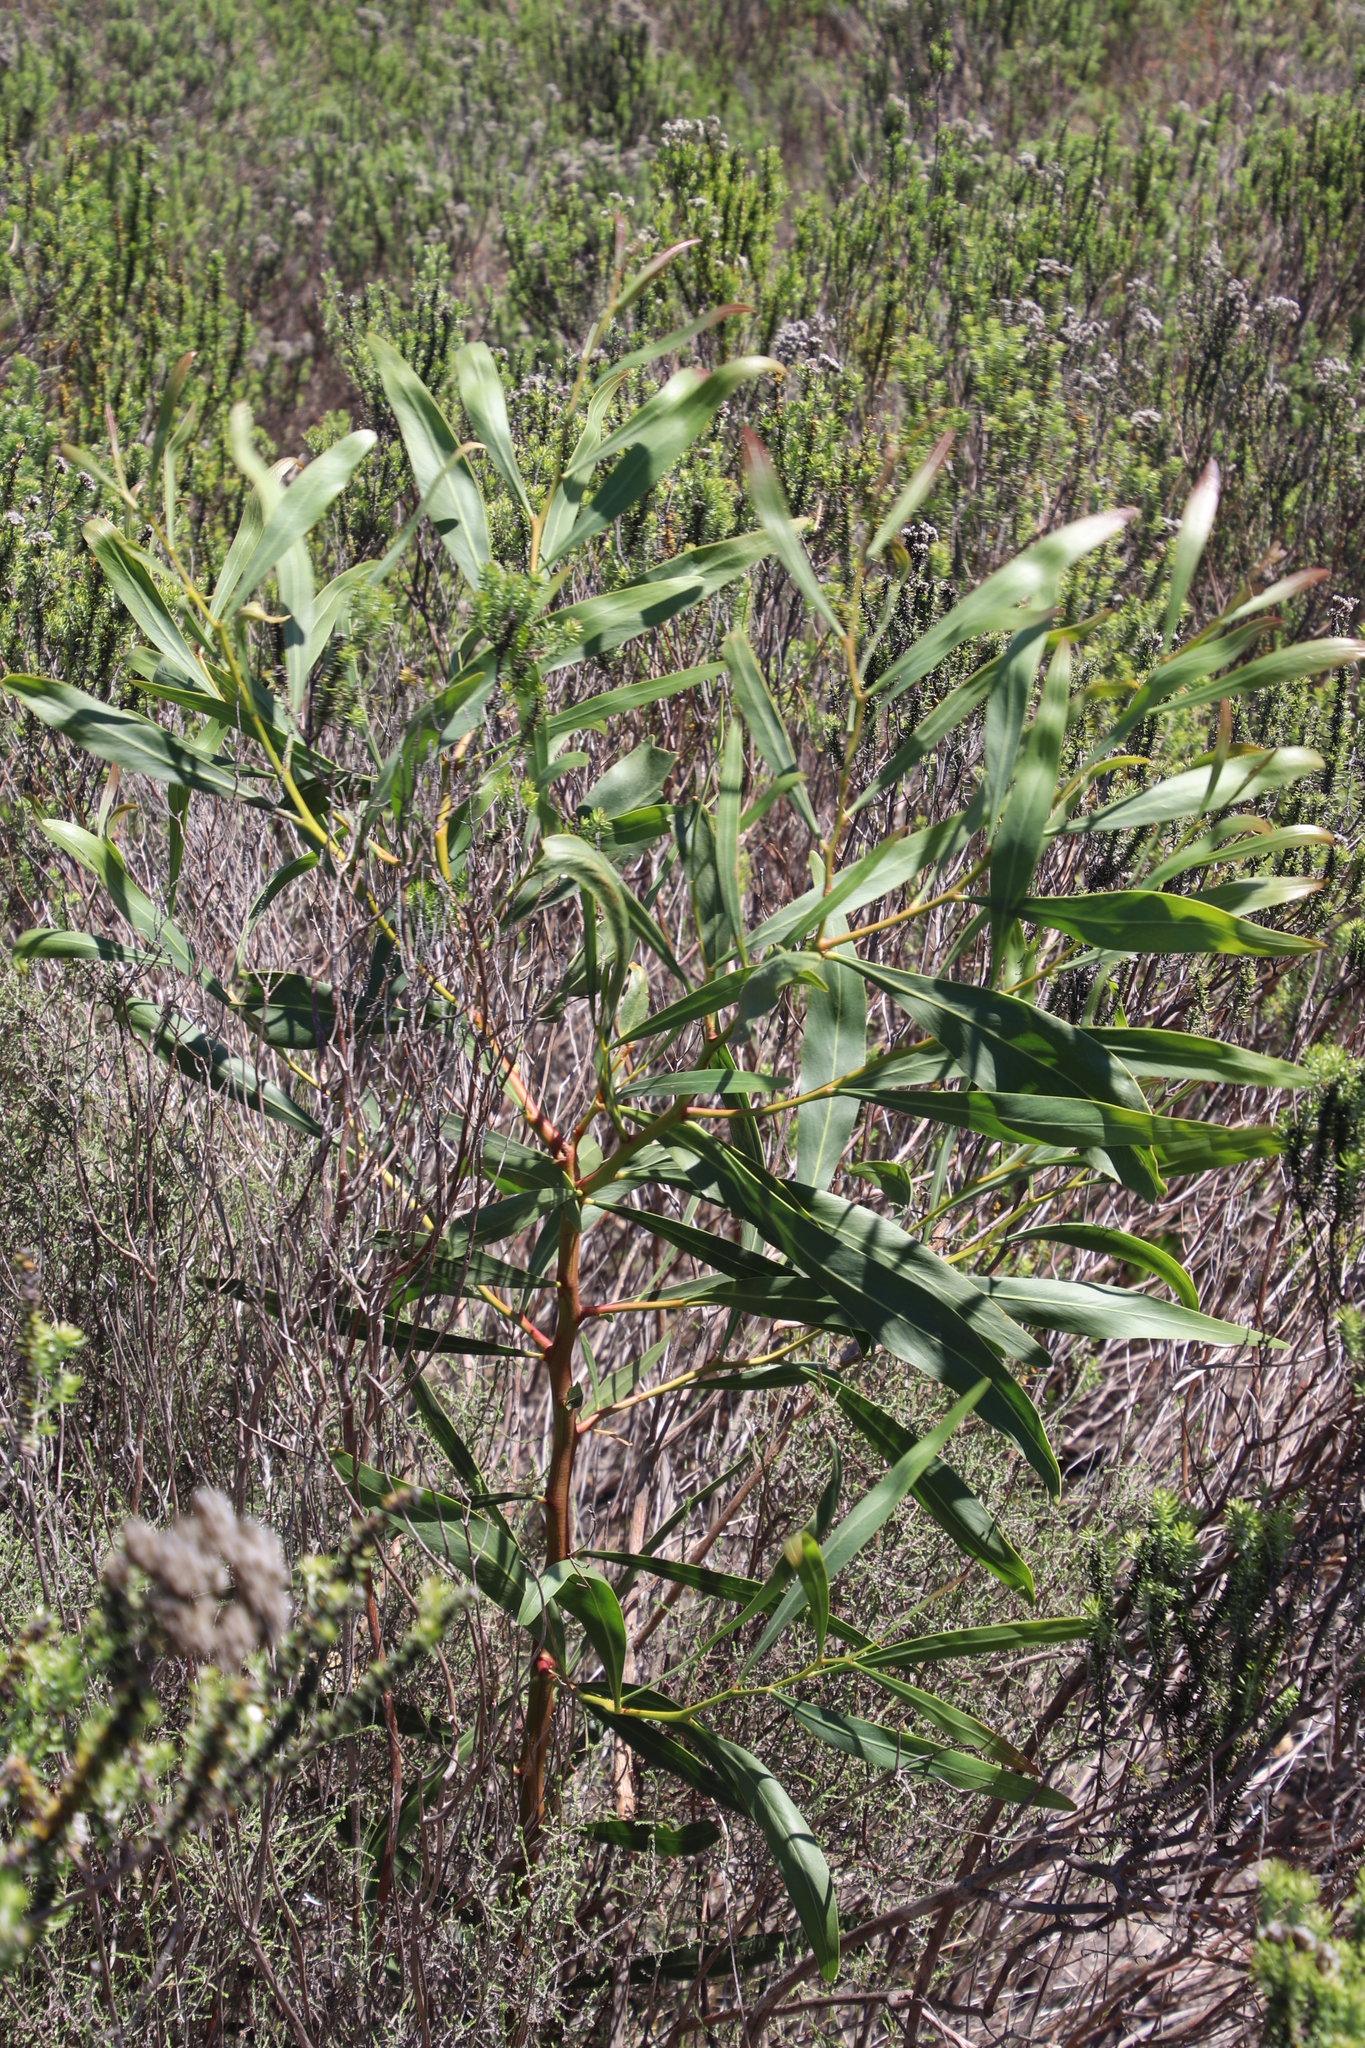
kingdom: Plantae
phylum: Tracheophyta
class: Magnoliopsida
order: Fabales
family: Fabaceae
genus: Acacia
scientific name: Acacia saligna
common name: Orange wattle
